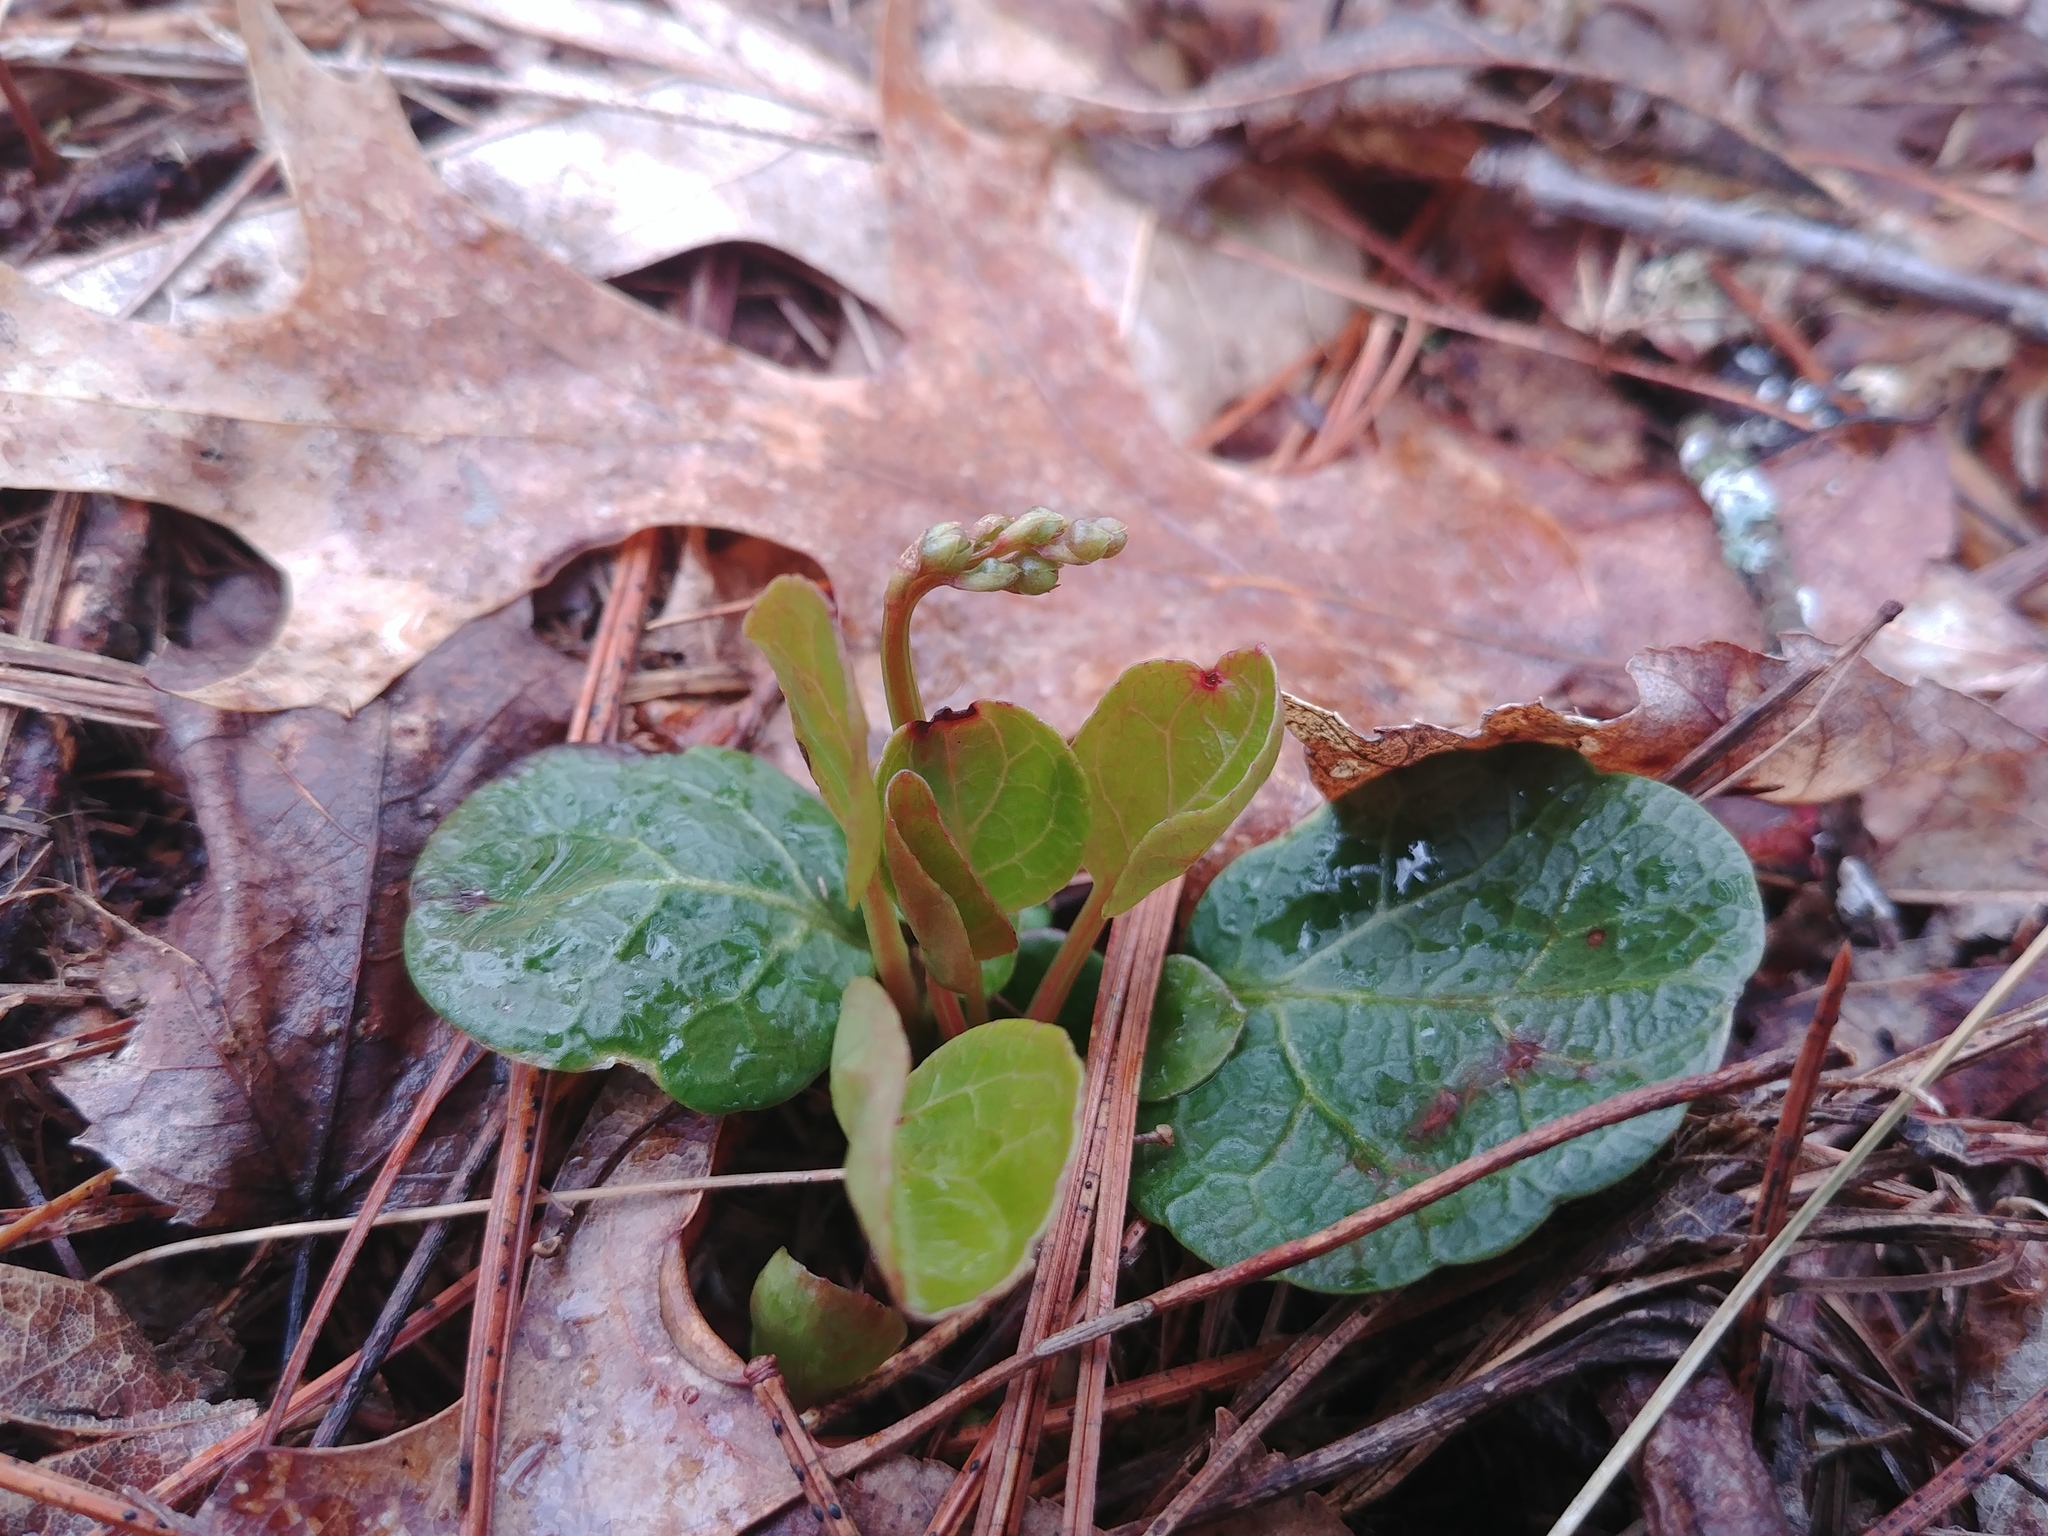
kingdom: Plantae
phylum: Tracheophyta
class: Magnoliopsida
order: Ericales
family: Ericaceae
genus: Pyrola
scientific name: Pyrola americana
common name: American wintergreen
